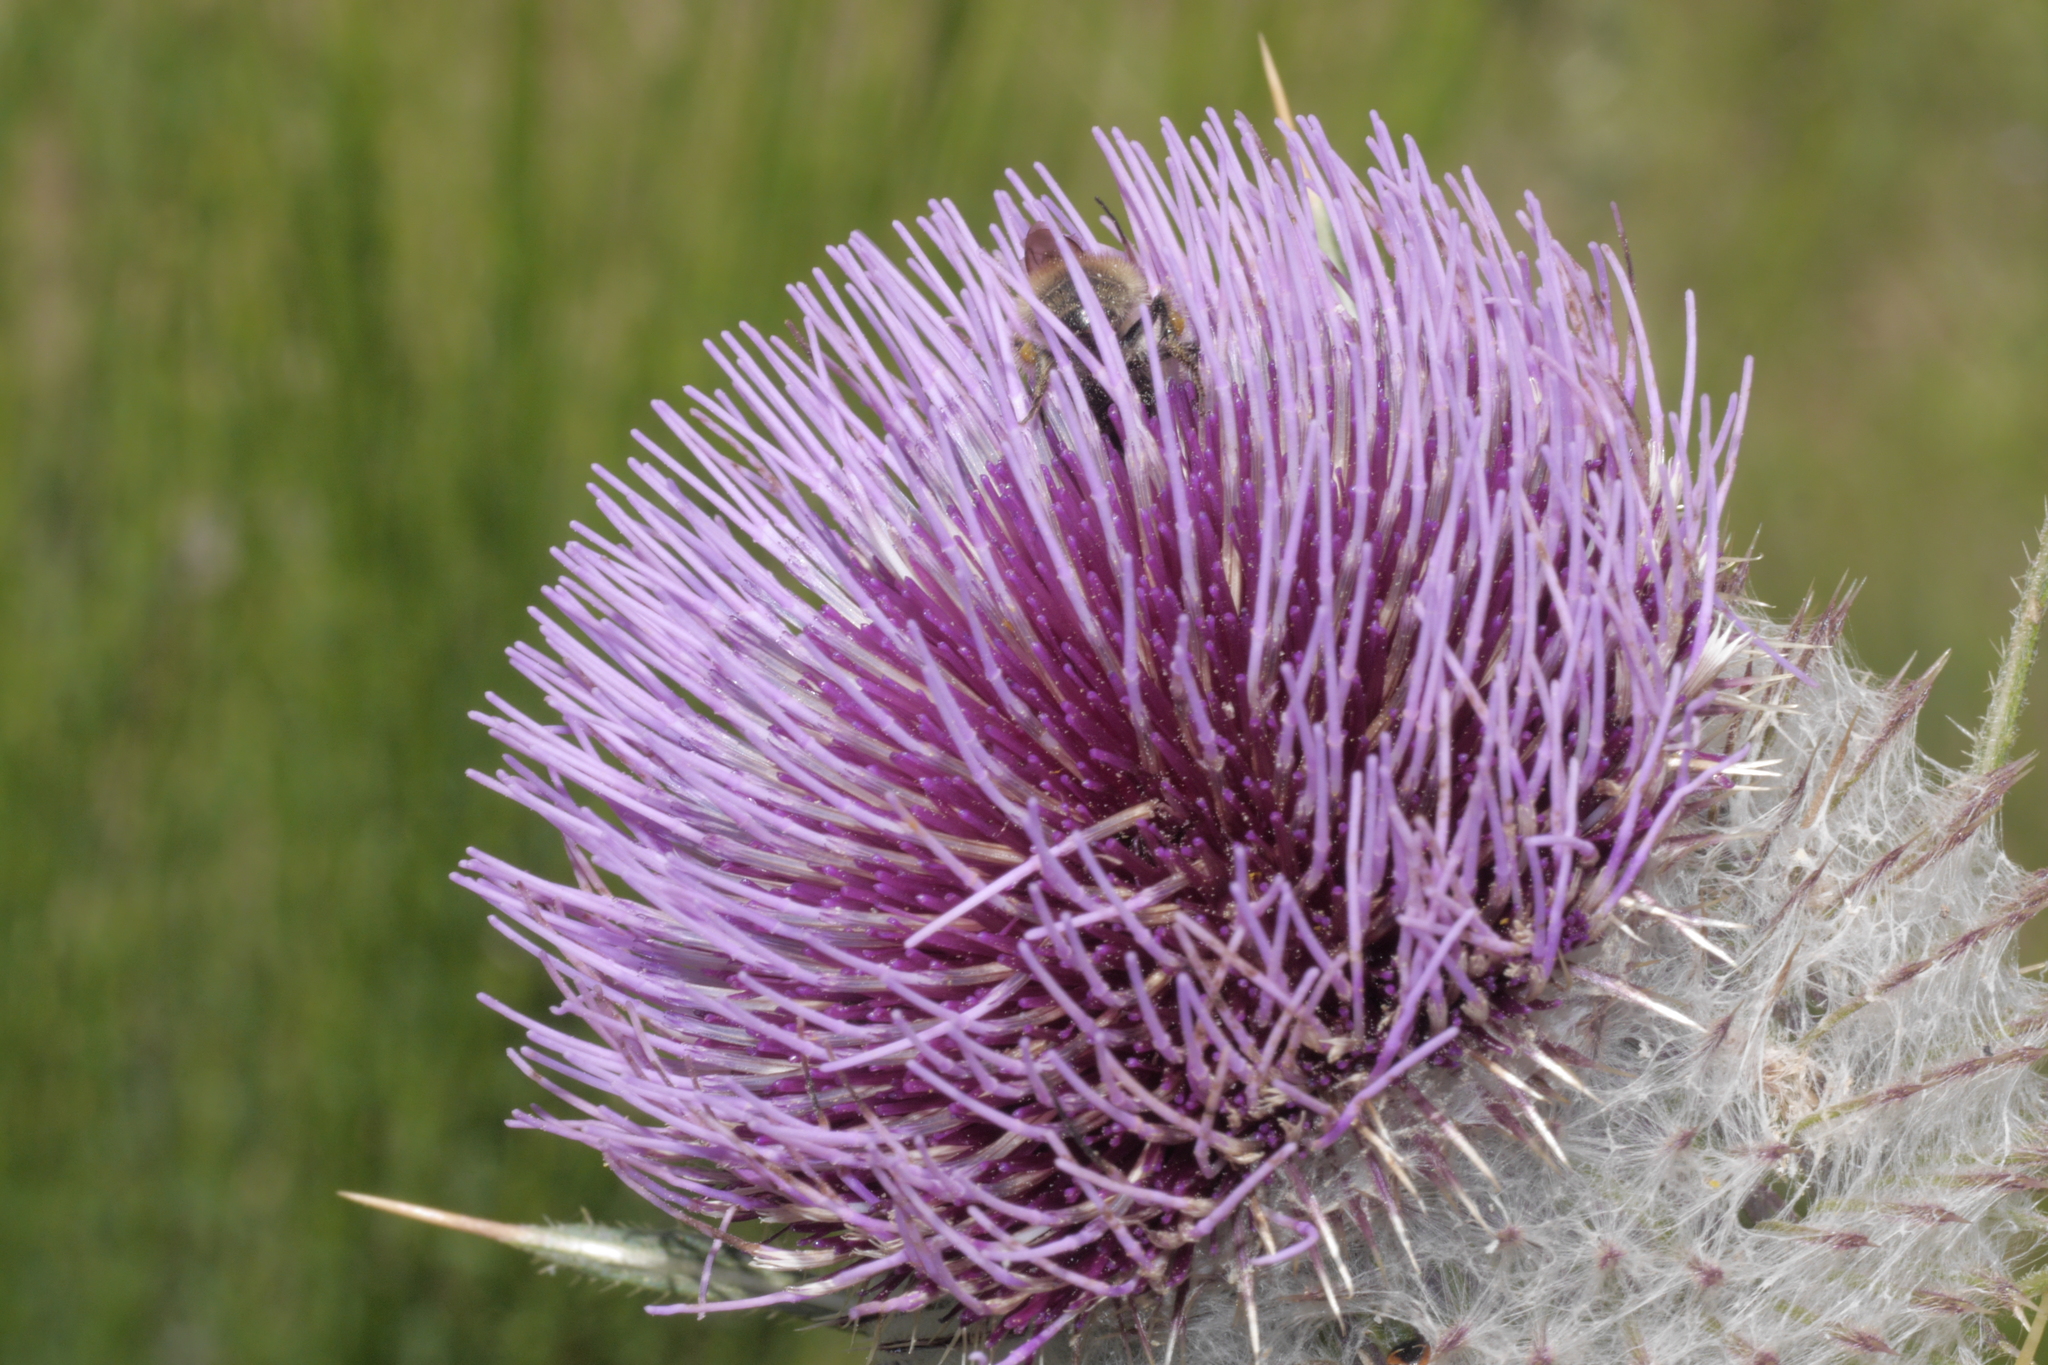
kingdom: Plantae
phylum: Tracheophyta
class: Magnoliopsida
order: Asterales
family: Asteraceae
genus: Lophiolepis
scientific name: Lophiolepis eriophora
